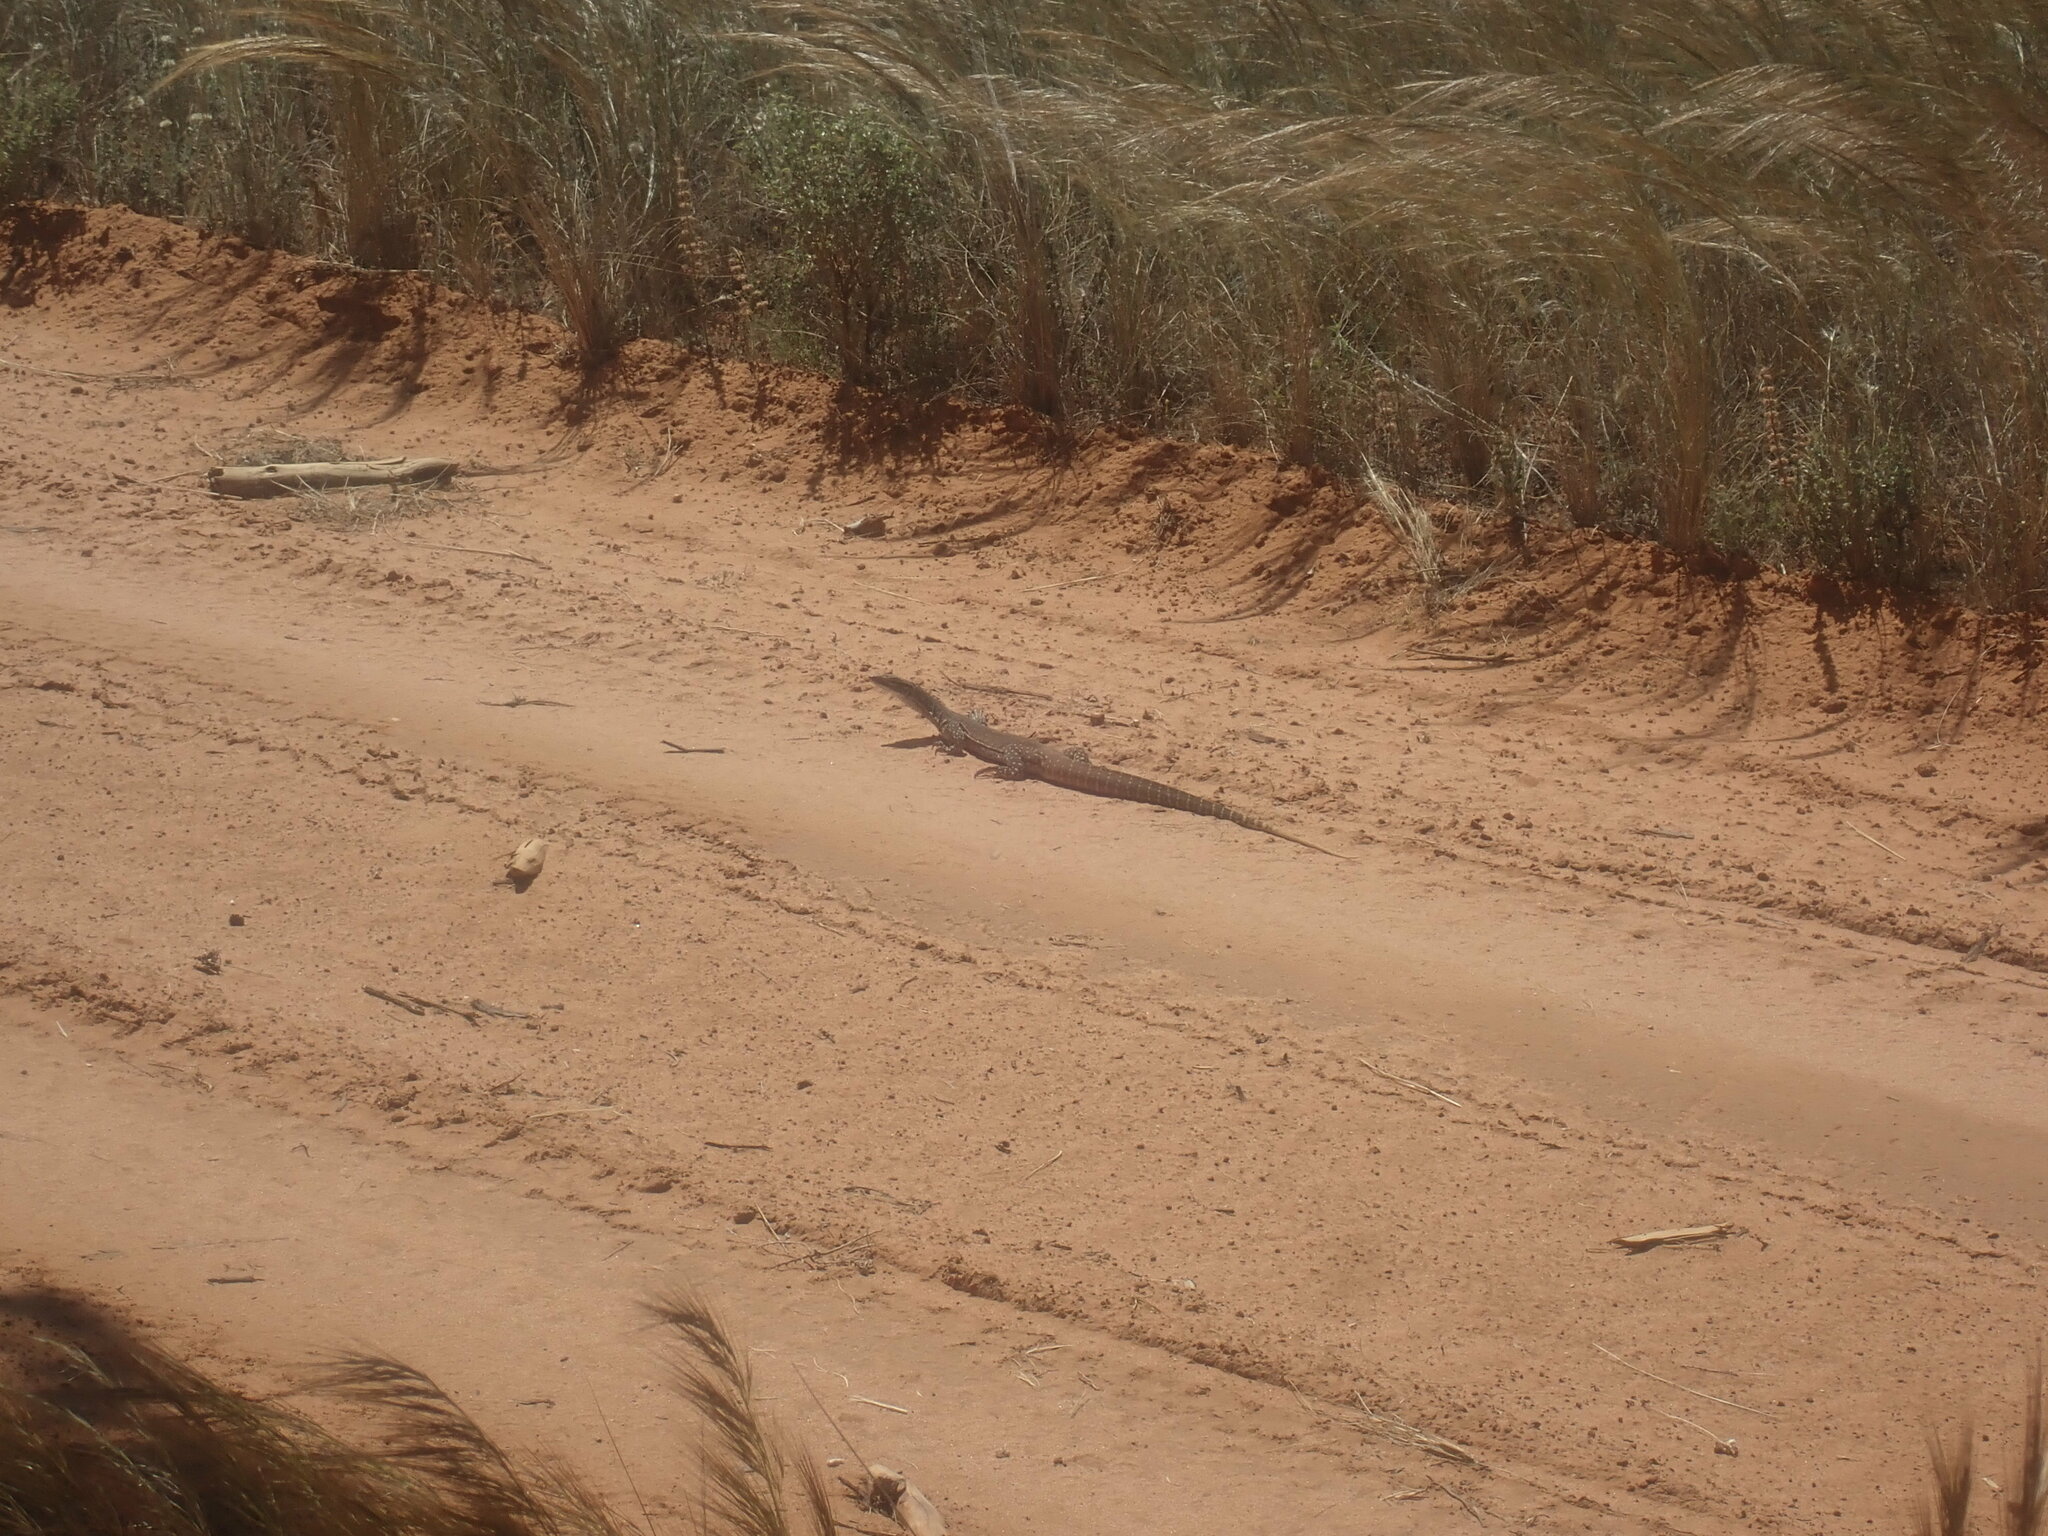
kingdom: Animalia
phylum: Chordata
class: Squamata
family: Varanidae
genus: Varanus
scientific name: Varanus gouldii
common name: Gould's goanna
